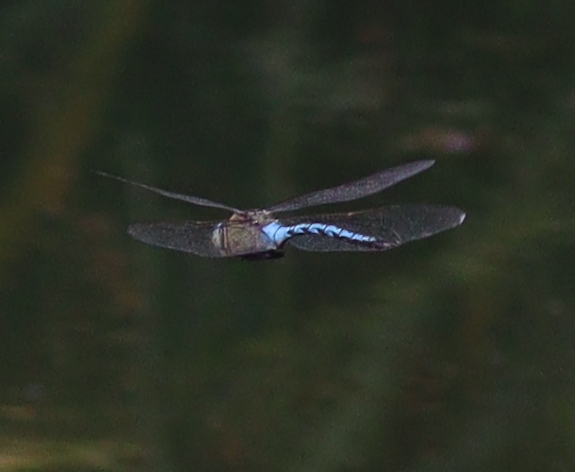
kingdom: Animalia
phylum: Arthropoda
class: Insecta
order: Odonata
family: Aeshnidae
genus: Anax
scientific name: Anax imperator
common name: Emperor dragonfly
